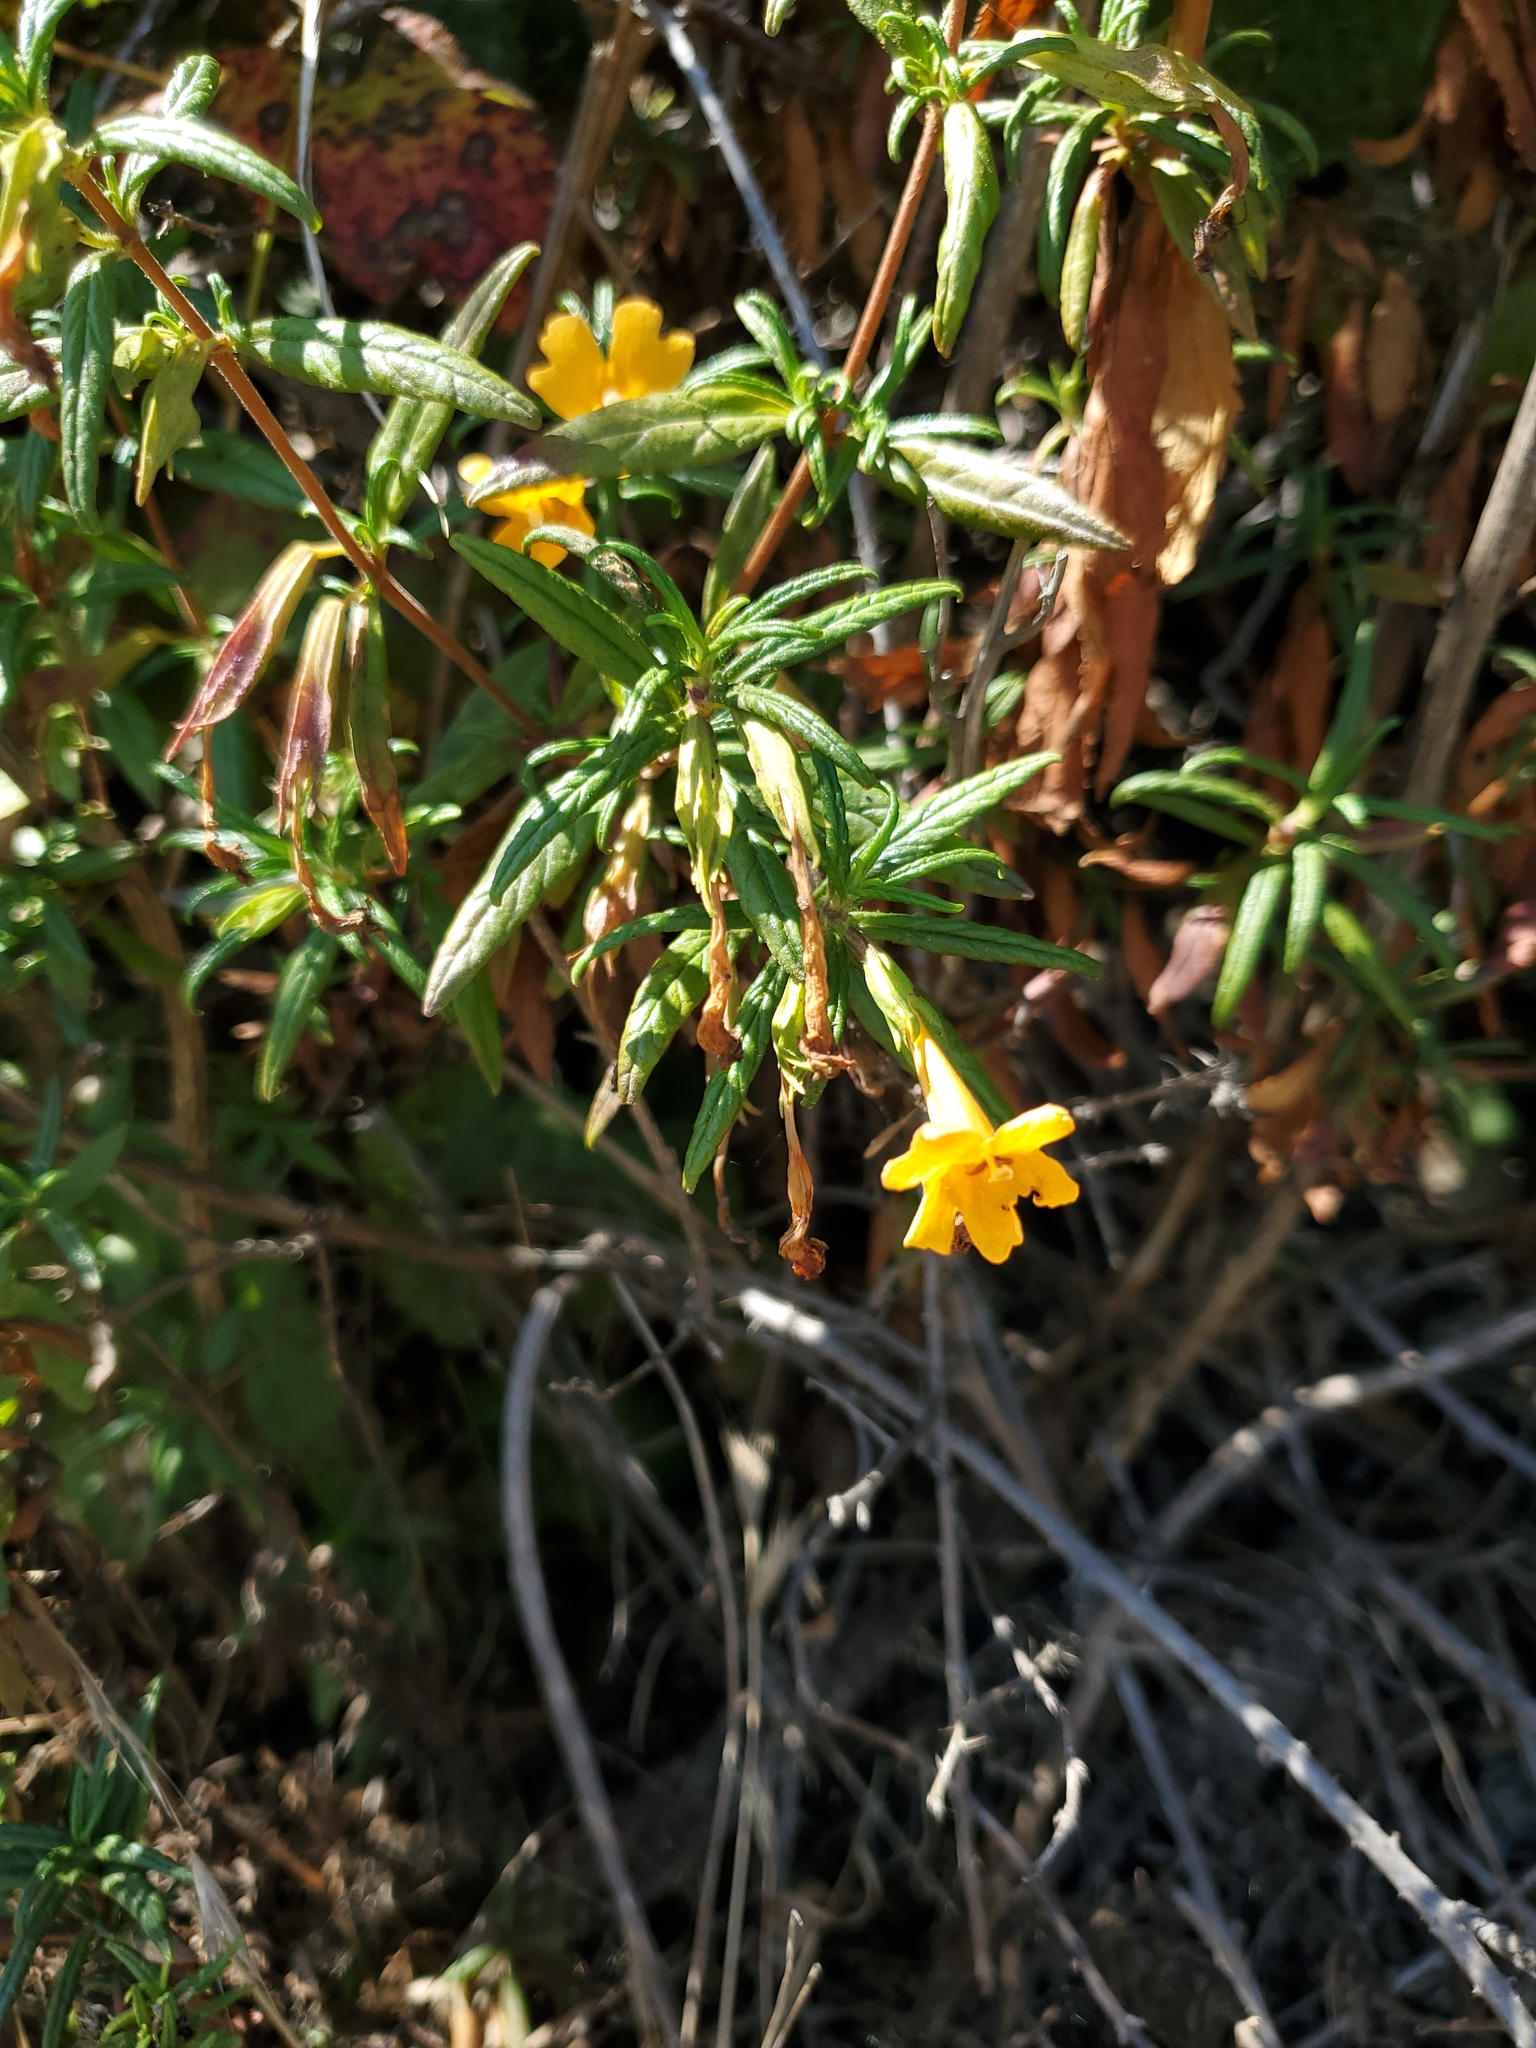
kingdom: Plantae
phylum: Tracheophyta
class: Magnoliopsida
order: Lamiales
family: Phrymaceae
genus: Diplacus
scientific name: Diplacus aurantiacus
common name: Bush monkey-flower
